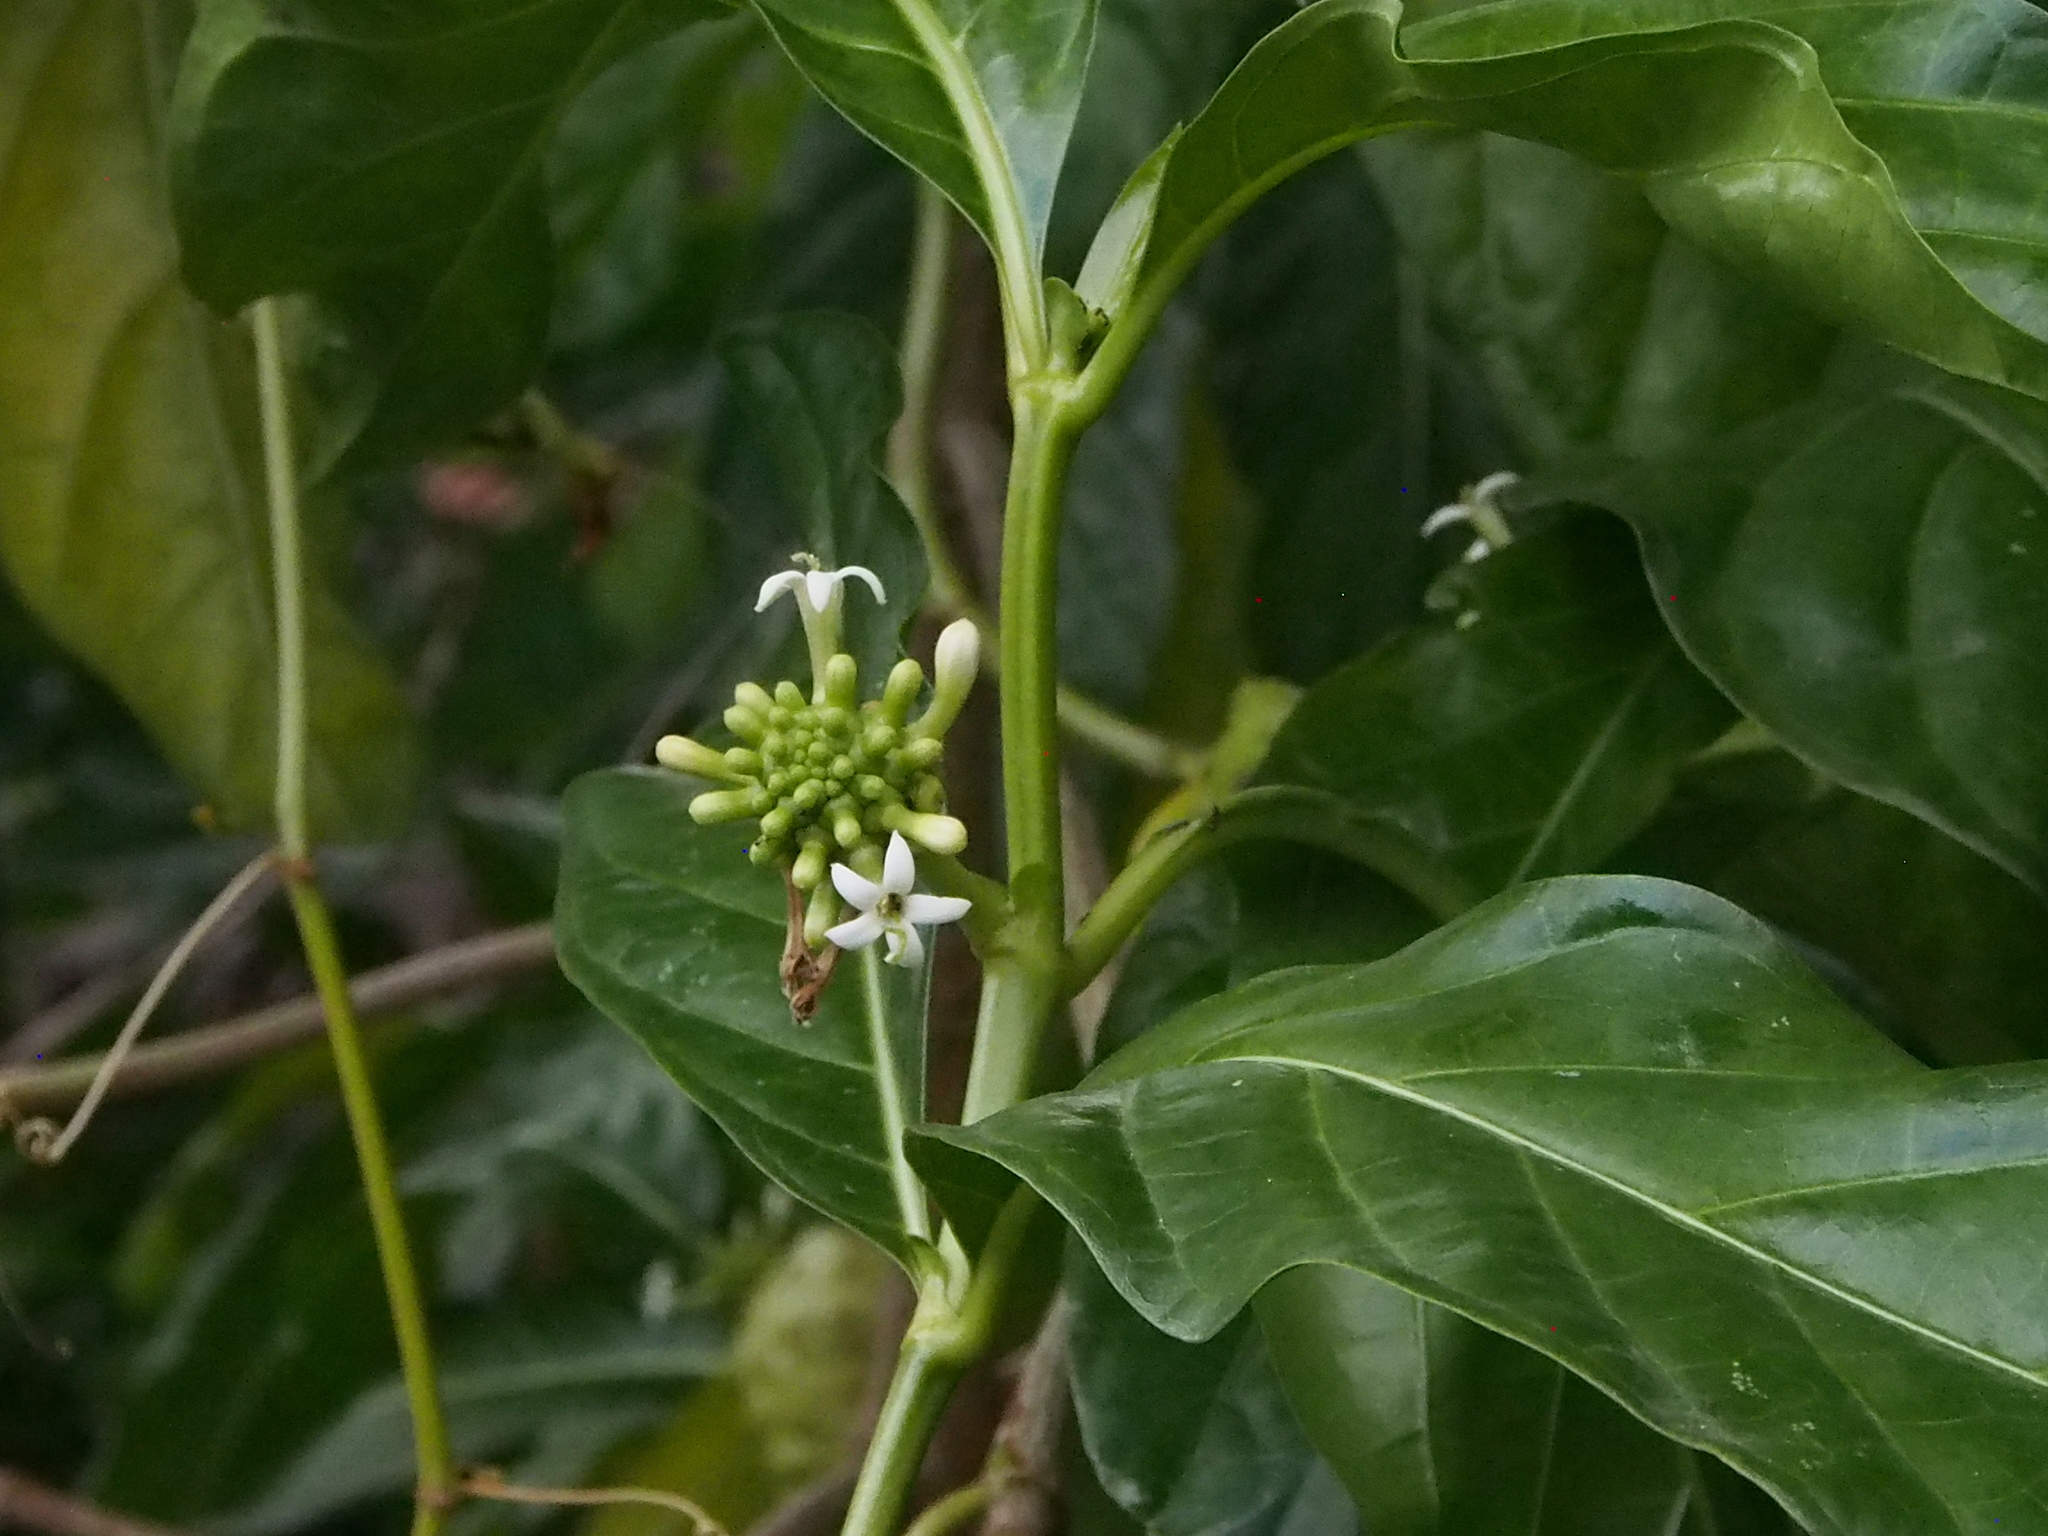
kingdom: Plantae
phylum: Tracheophyta
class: Magnoliopsida
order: Gentianales
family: Rubiaceae
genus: Morinda
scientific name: Morinda citrifolia
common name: Indian-mulberry
